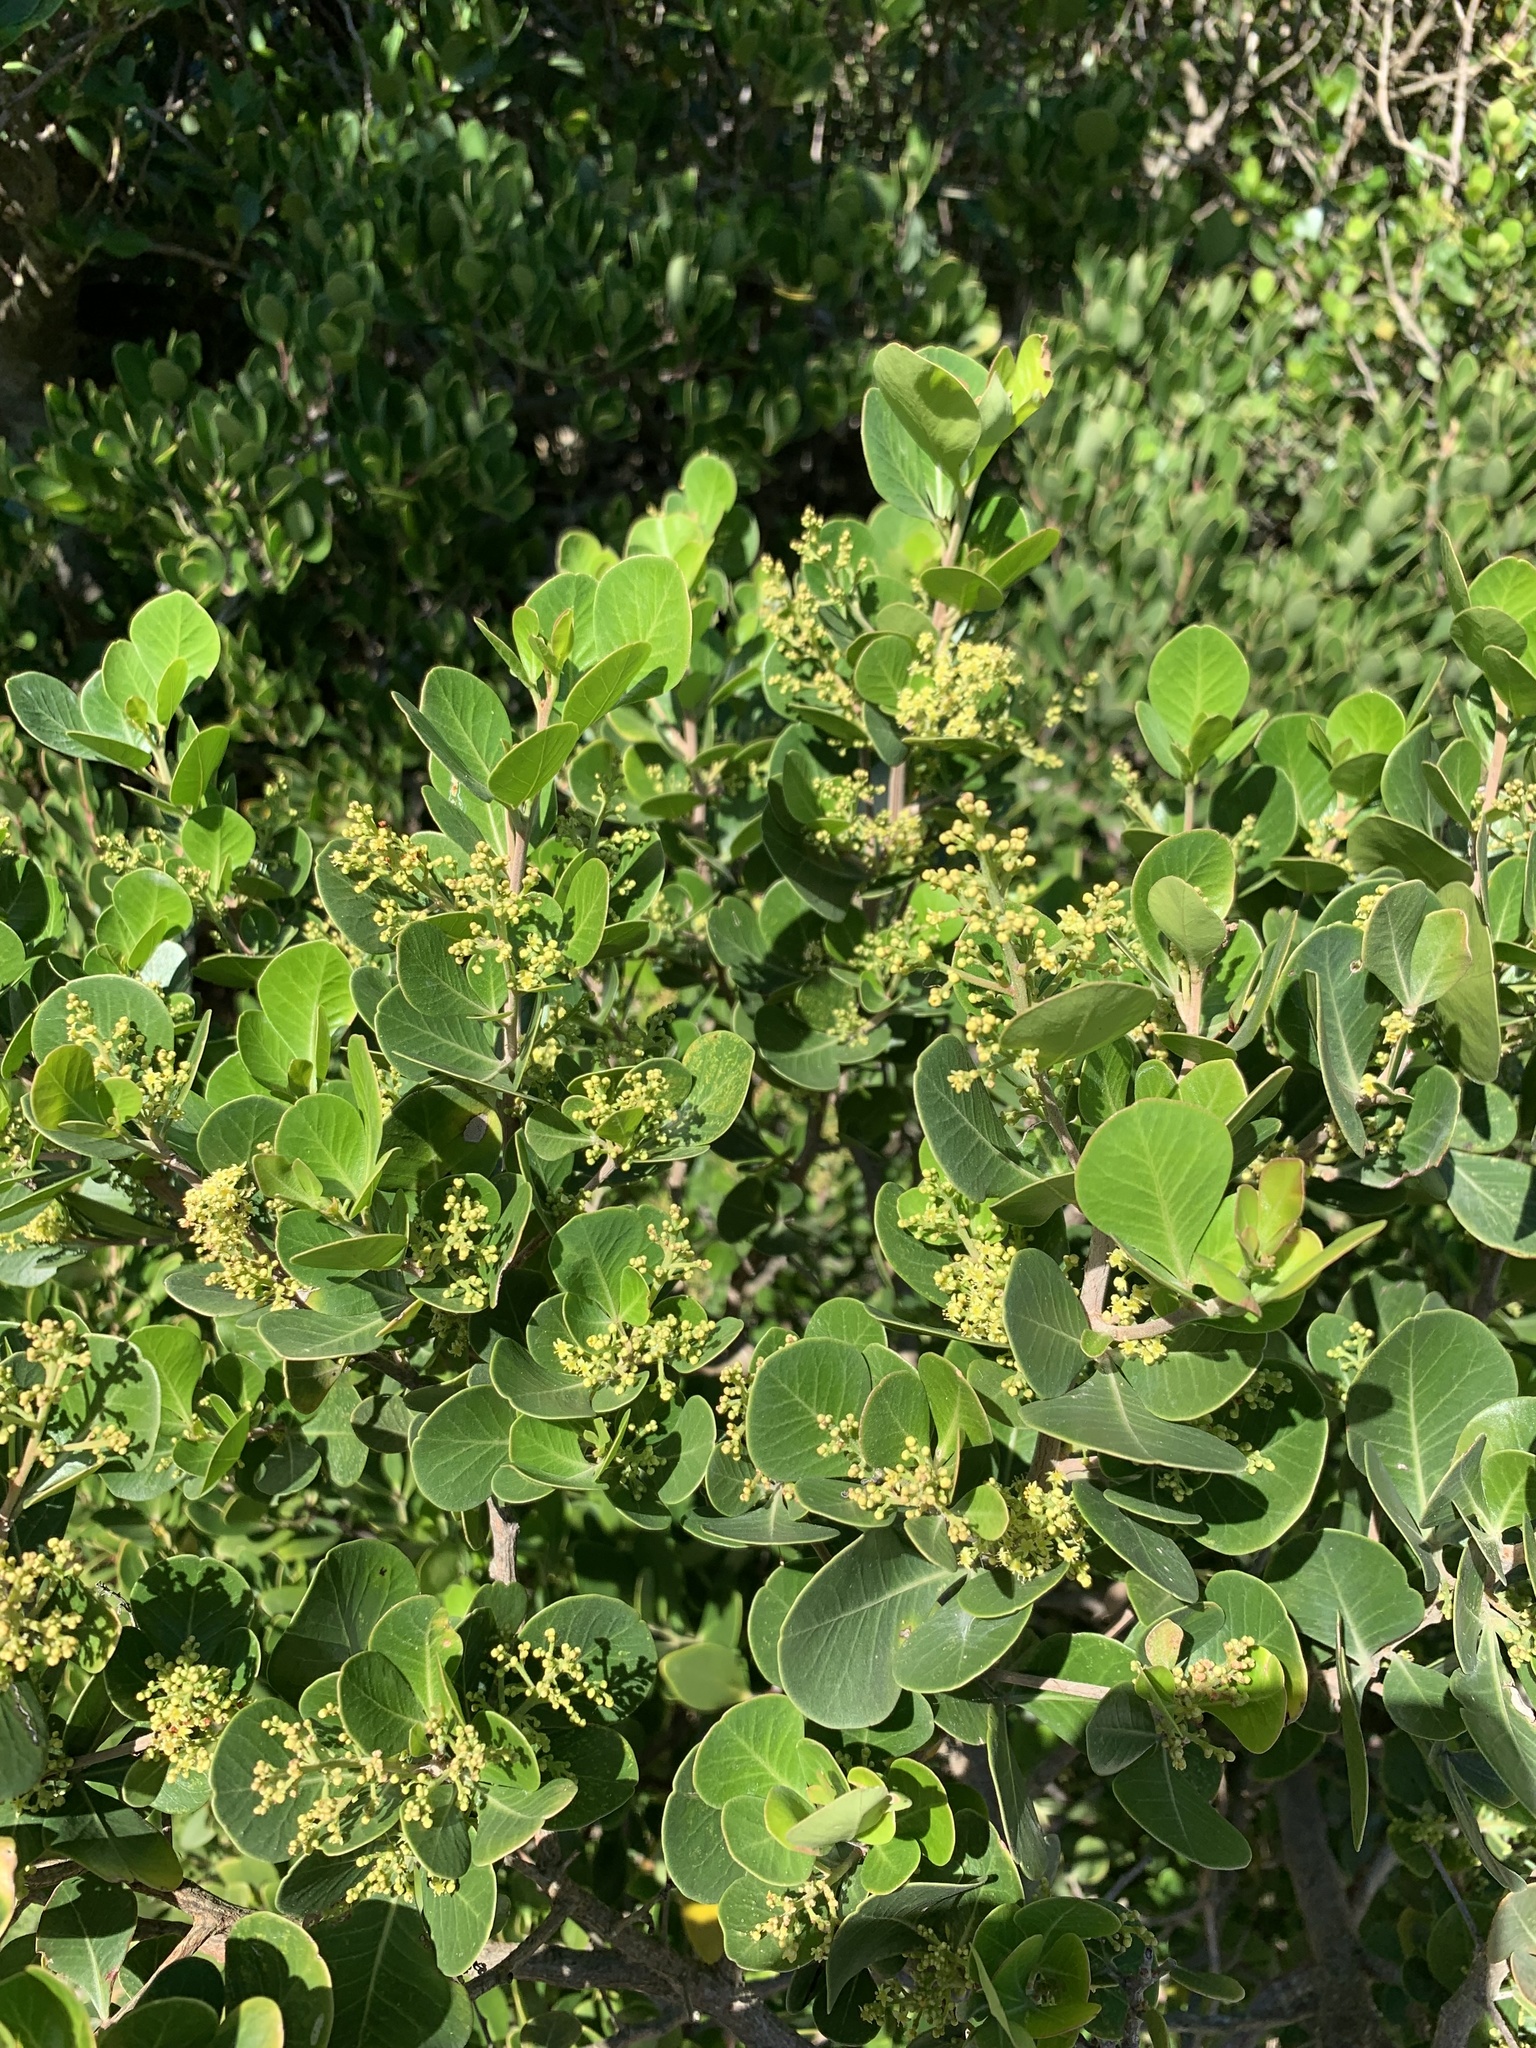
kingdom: Plantae
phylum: Tracheophyta
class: Magnoliopsida
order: Sapindales
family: Anacardiaceae
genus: Searsia
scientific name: Searsia lucida
